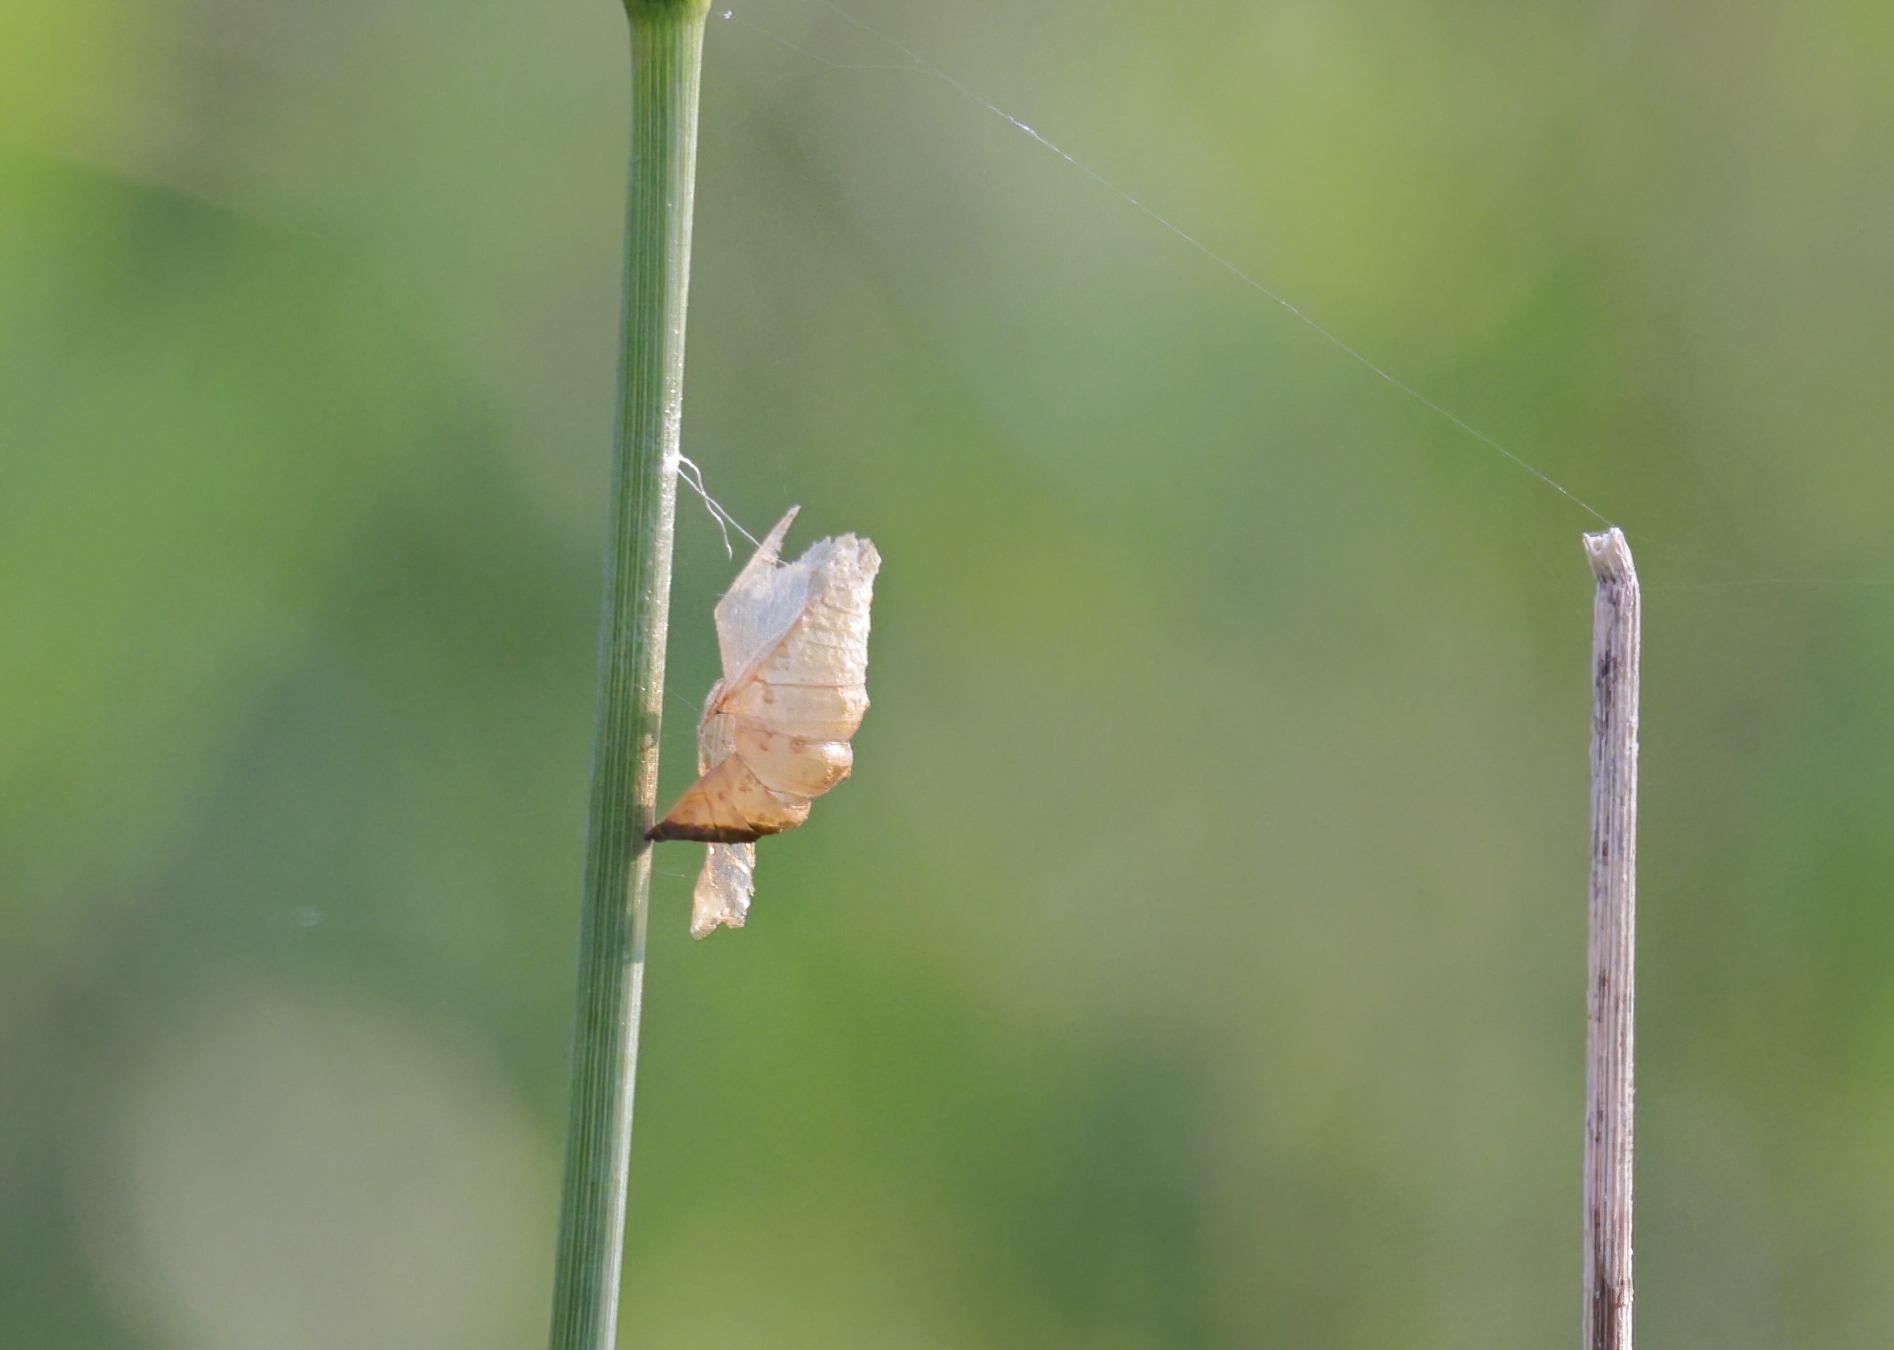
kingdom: Animalia
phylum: Arthropoda
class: Insecta
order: Lepidoptera
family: Papilionidae
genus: Papilio
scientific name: Papilio polyxenes
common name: Black swallowtail
